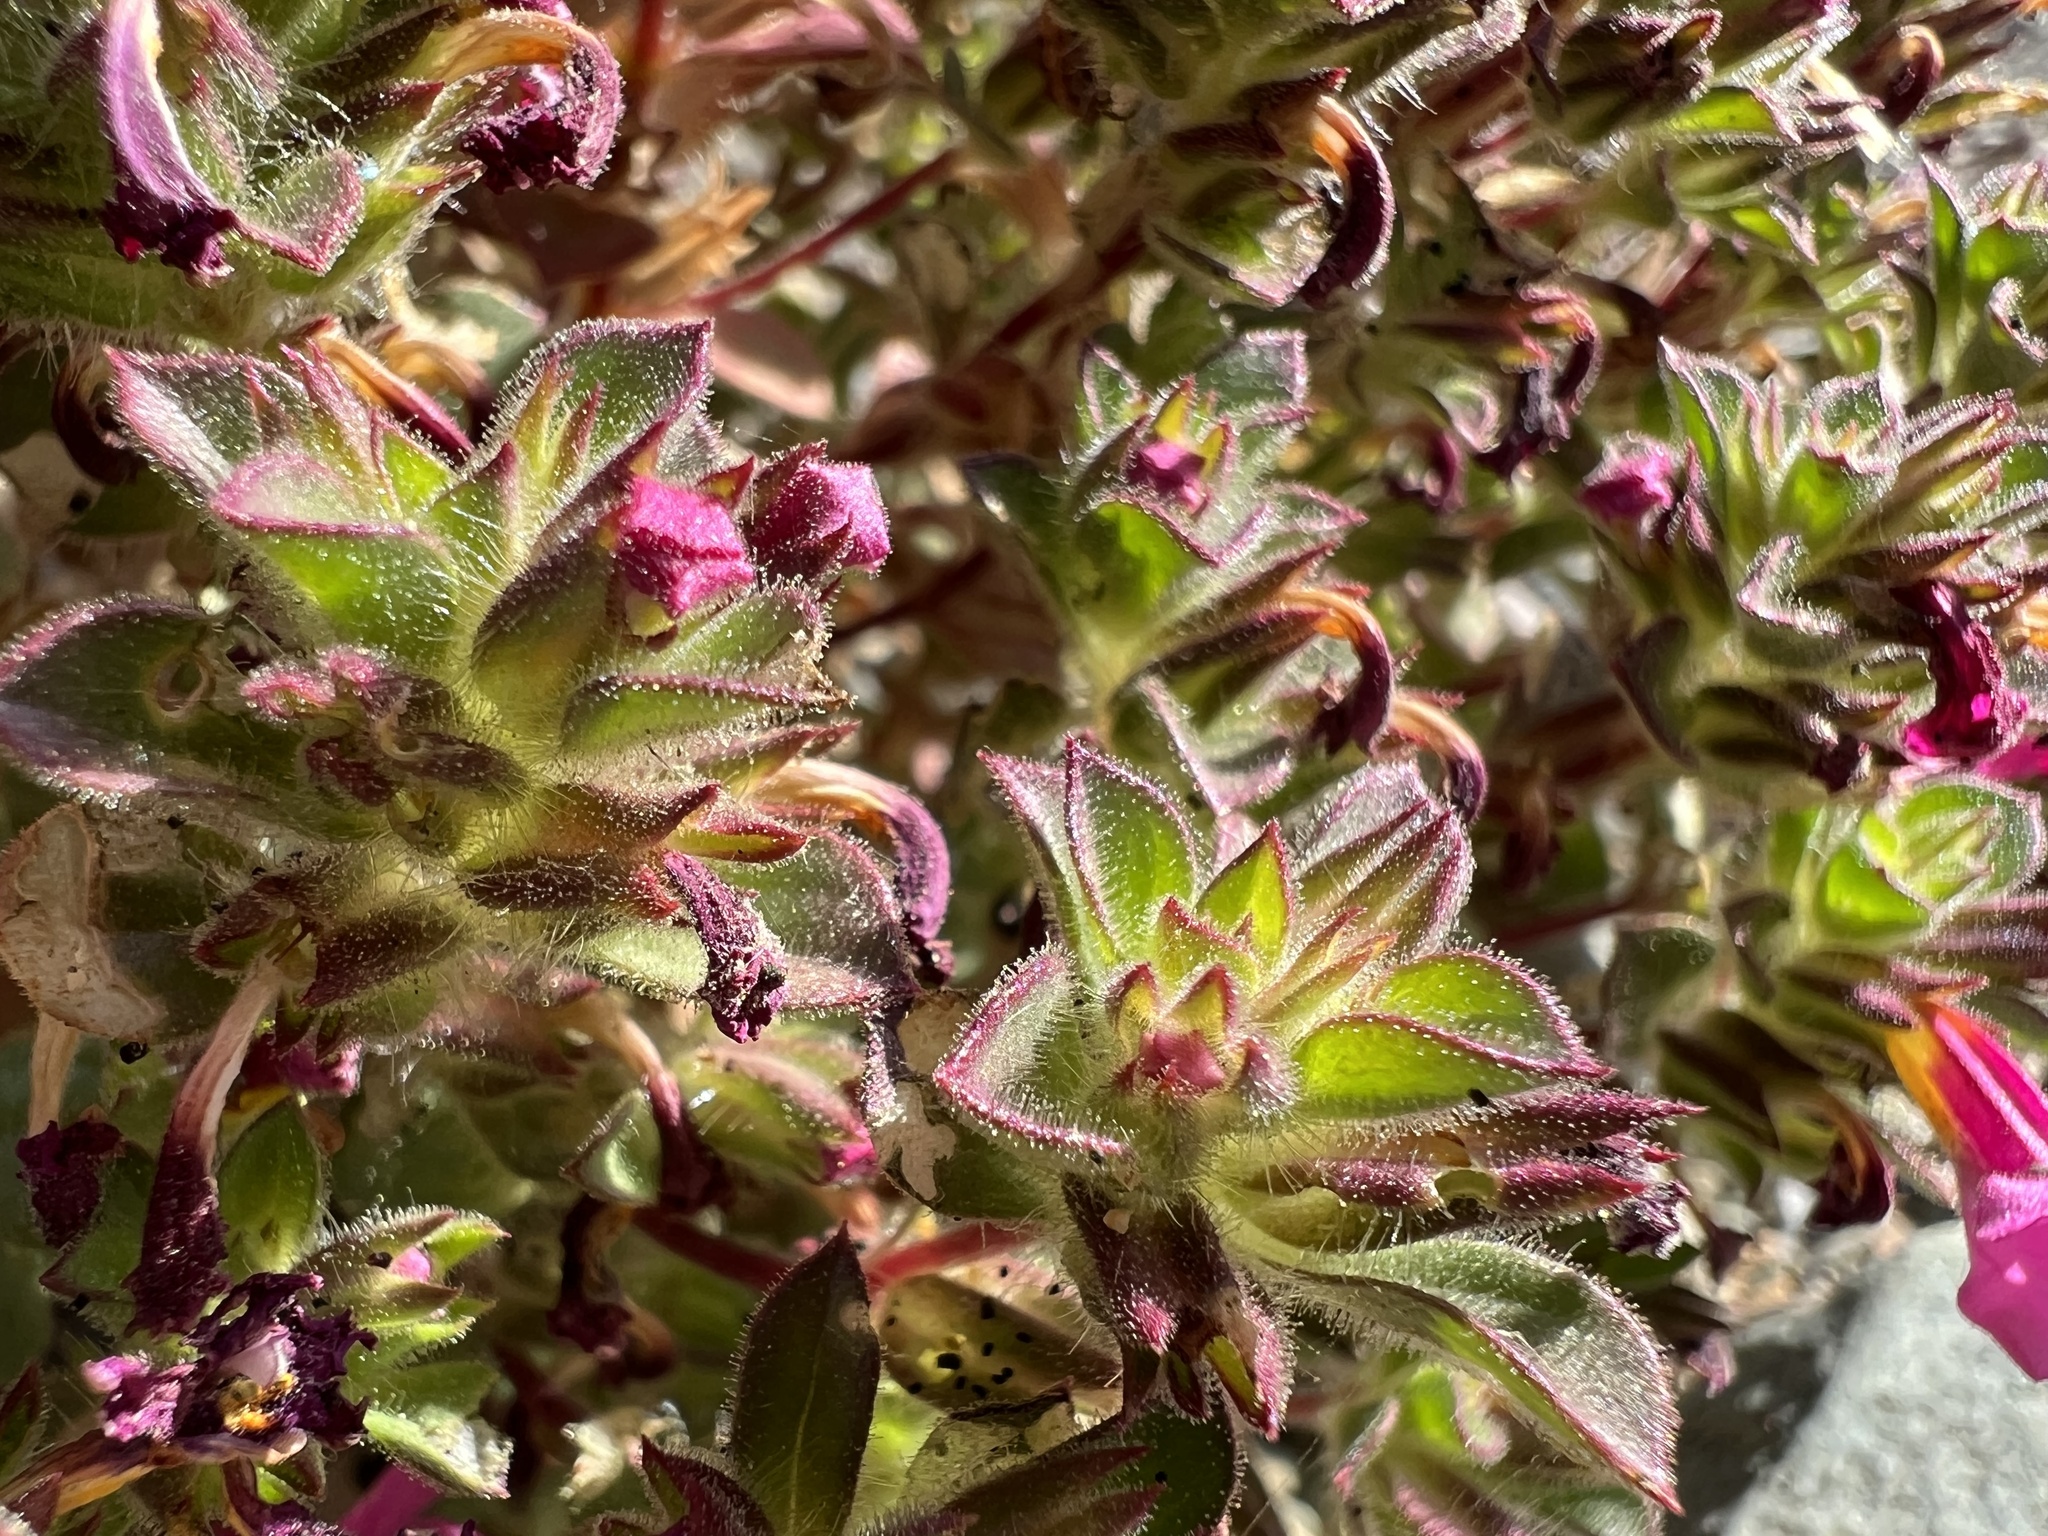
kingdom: Plantae
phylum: Tracheophyta
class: Magnoliopsida
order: Lamiales
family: Phrymaceae
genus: Diplacus
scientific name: Diplacus bigelovii
